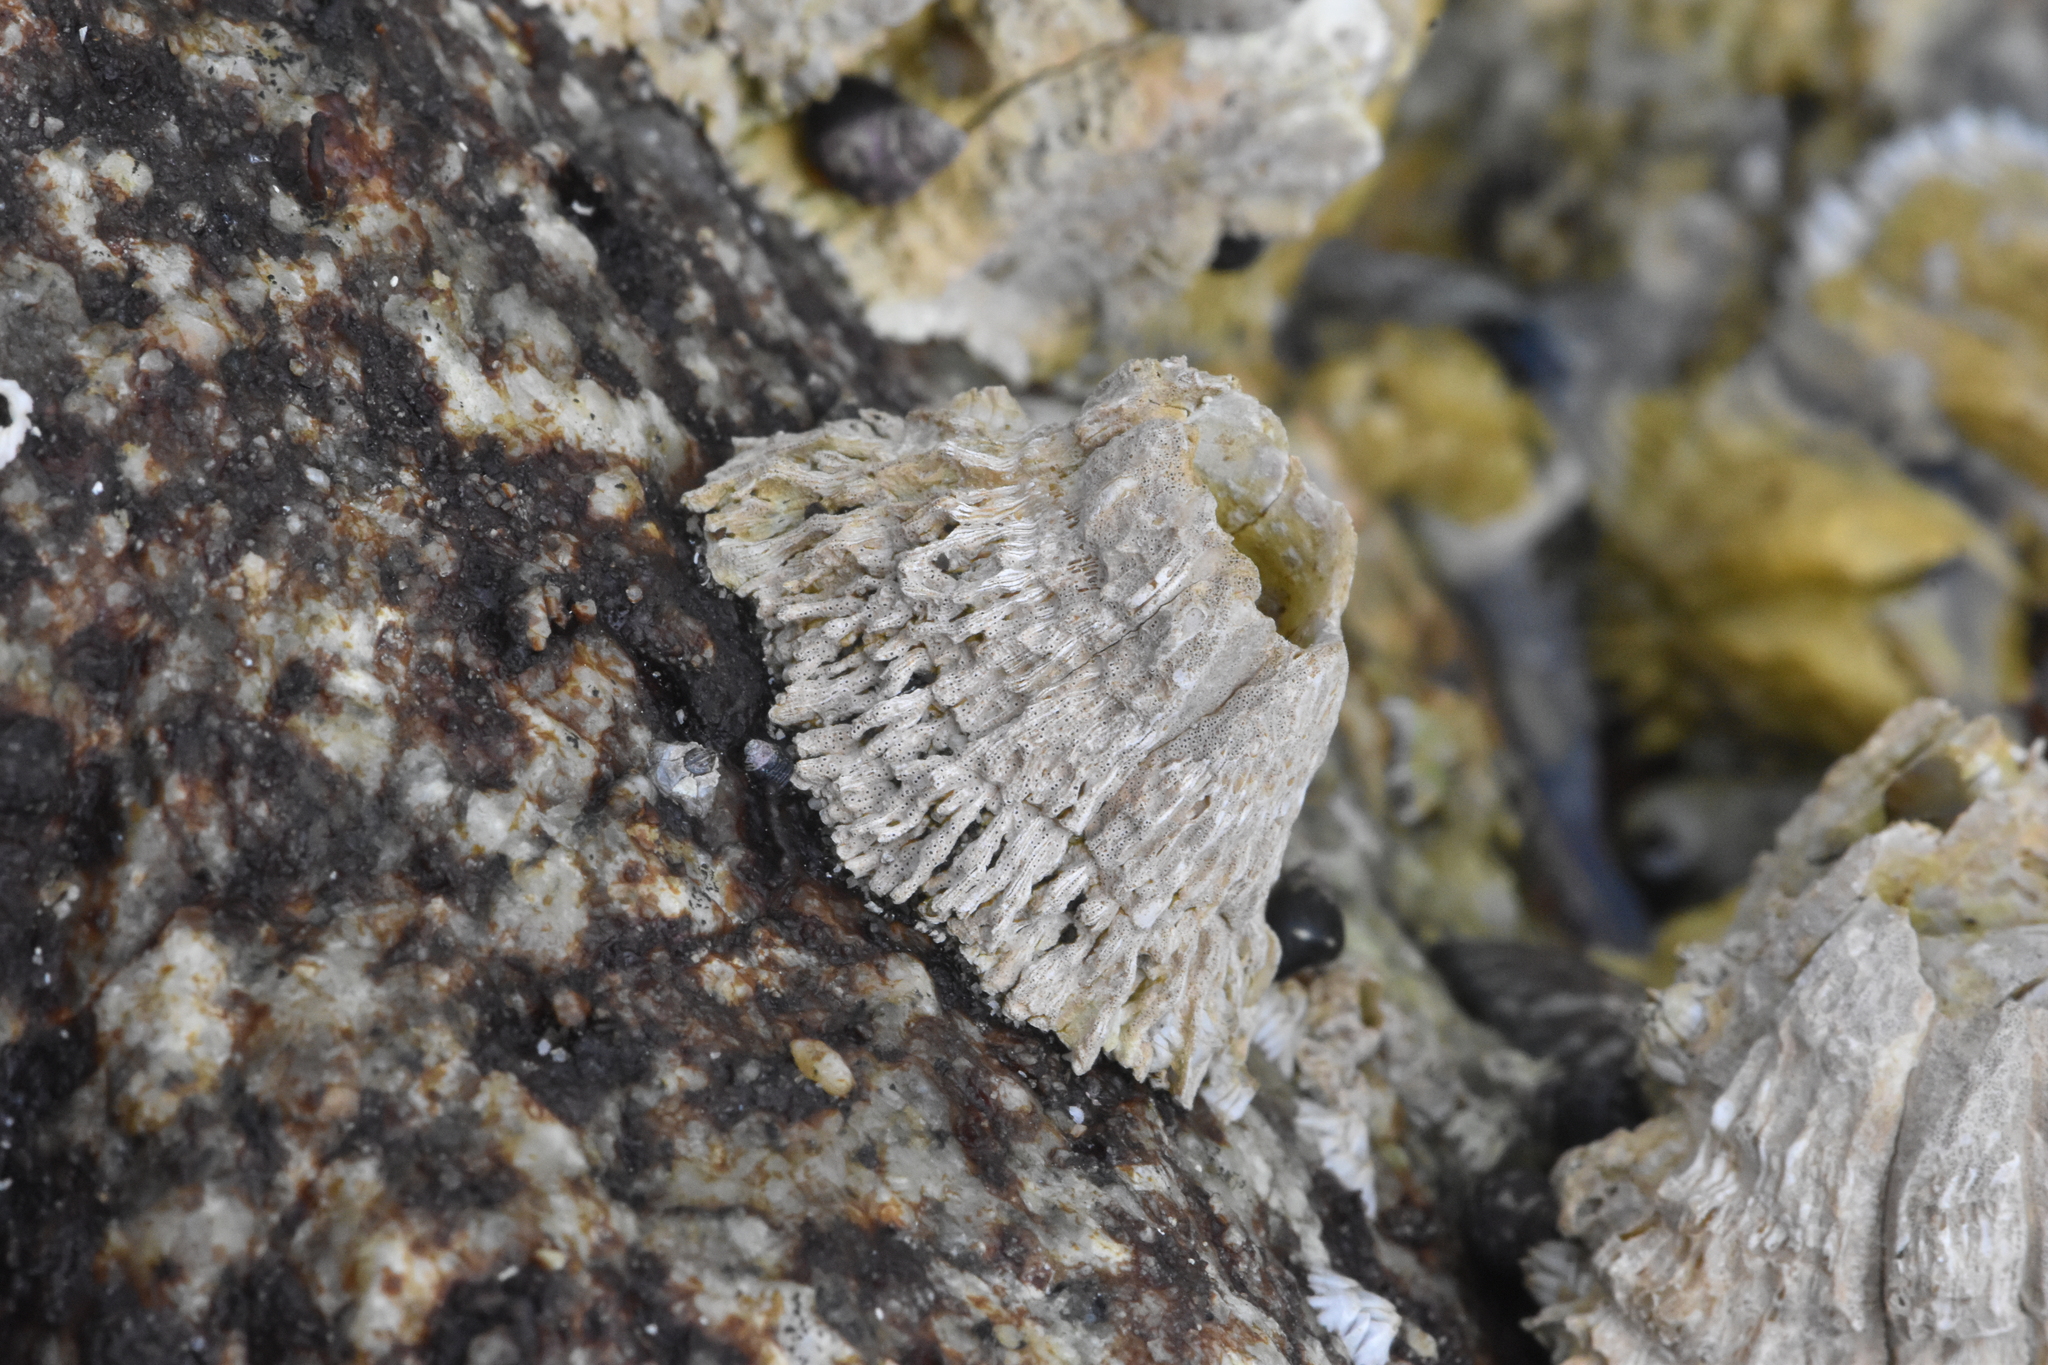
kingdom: Animalia
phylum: Arthropoda
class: Maxillopoda
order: Sessilia
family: Archaeobalanidae
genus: Semibalanus
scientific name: Semibalanus cariosus
